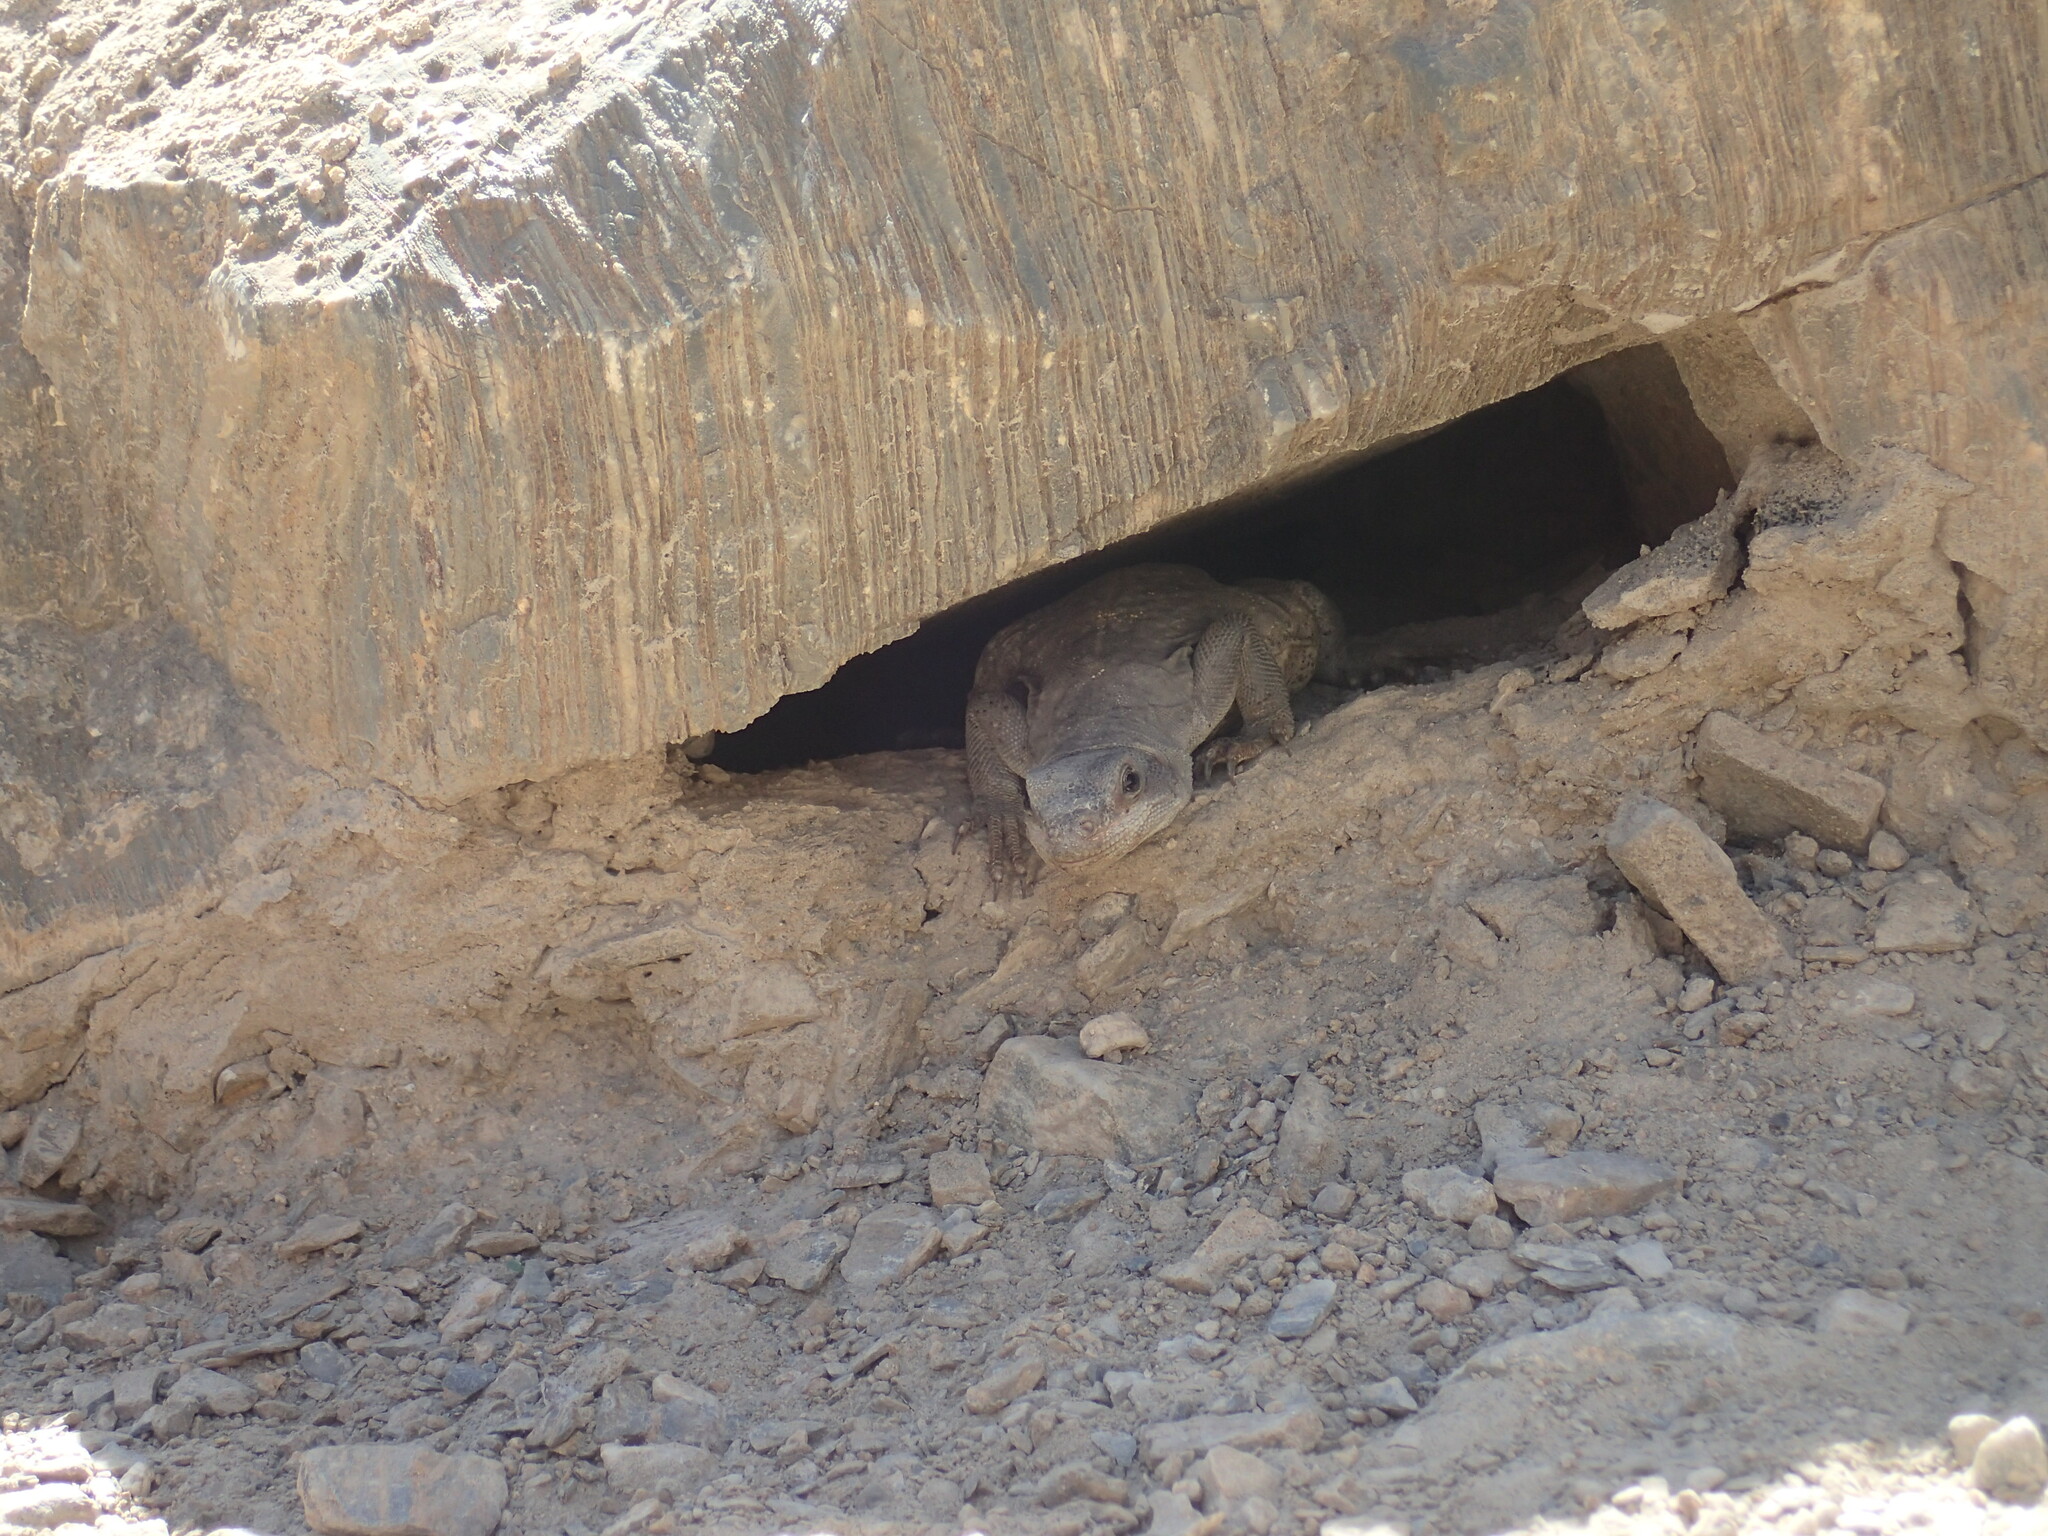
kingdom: Animalia
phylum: Chordata
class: Squamata
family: Iguanidae
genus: Sauromalus
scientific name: Sauromalus ater
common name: Northern chuckwalla
